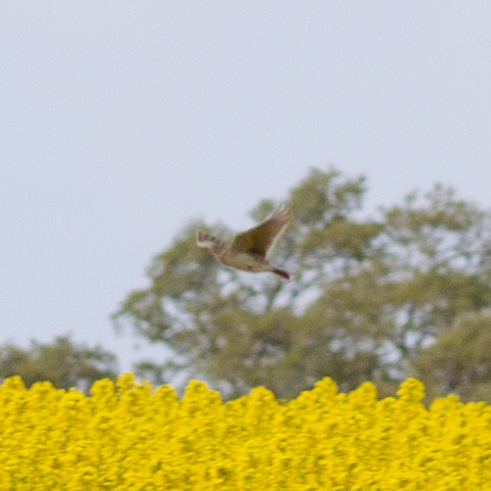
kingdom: Animalia
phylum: Chordata
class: Aves
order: Passeriformes
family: Alaudidae
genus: Alauda
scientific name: Alauda arvensis
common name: Eurasian skylark
